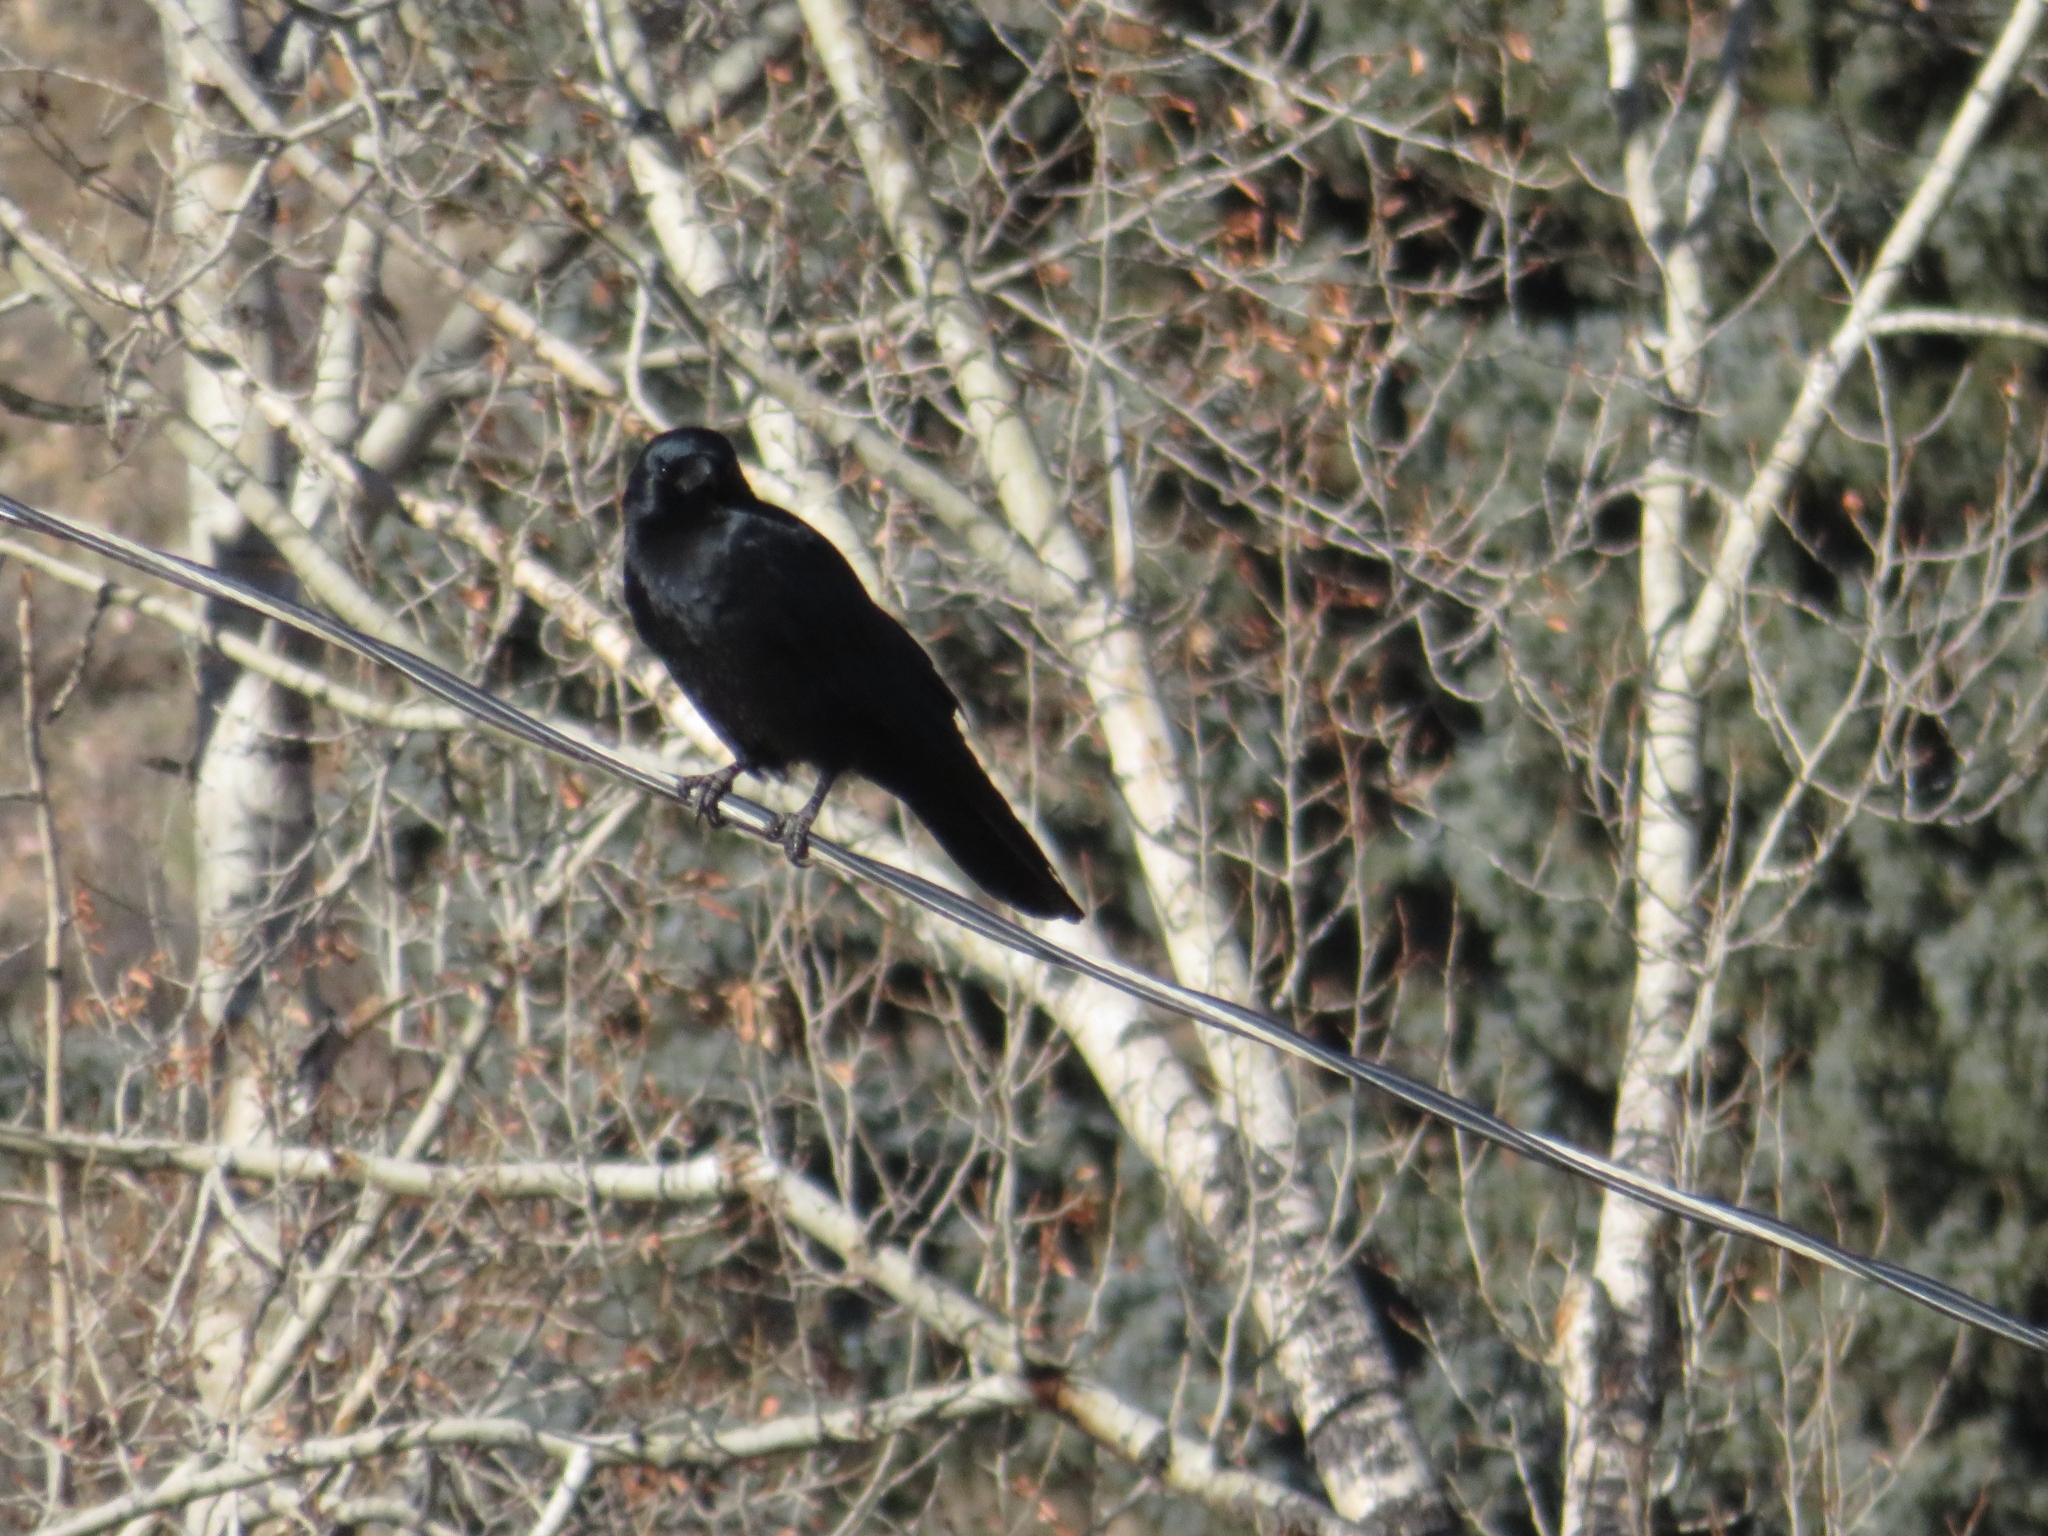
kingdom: Animalia
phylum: Chordata
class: Aves
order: Passeriformes
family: Corvidae
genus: Corvus
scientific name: Corvus brachyrhynchos
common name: American crow
